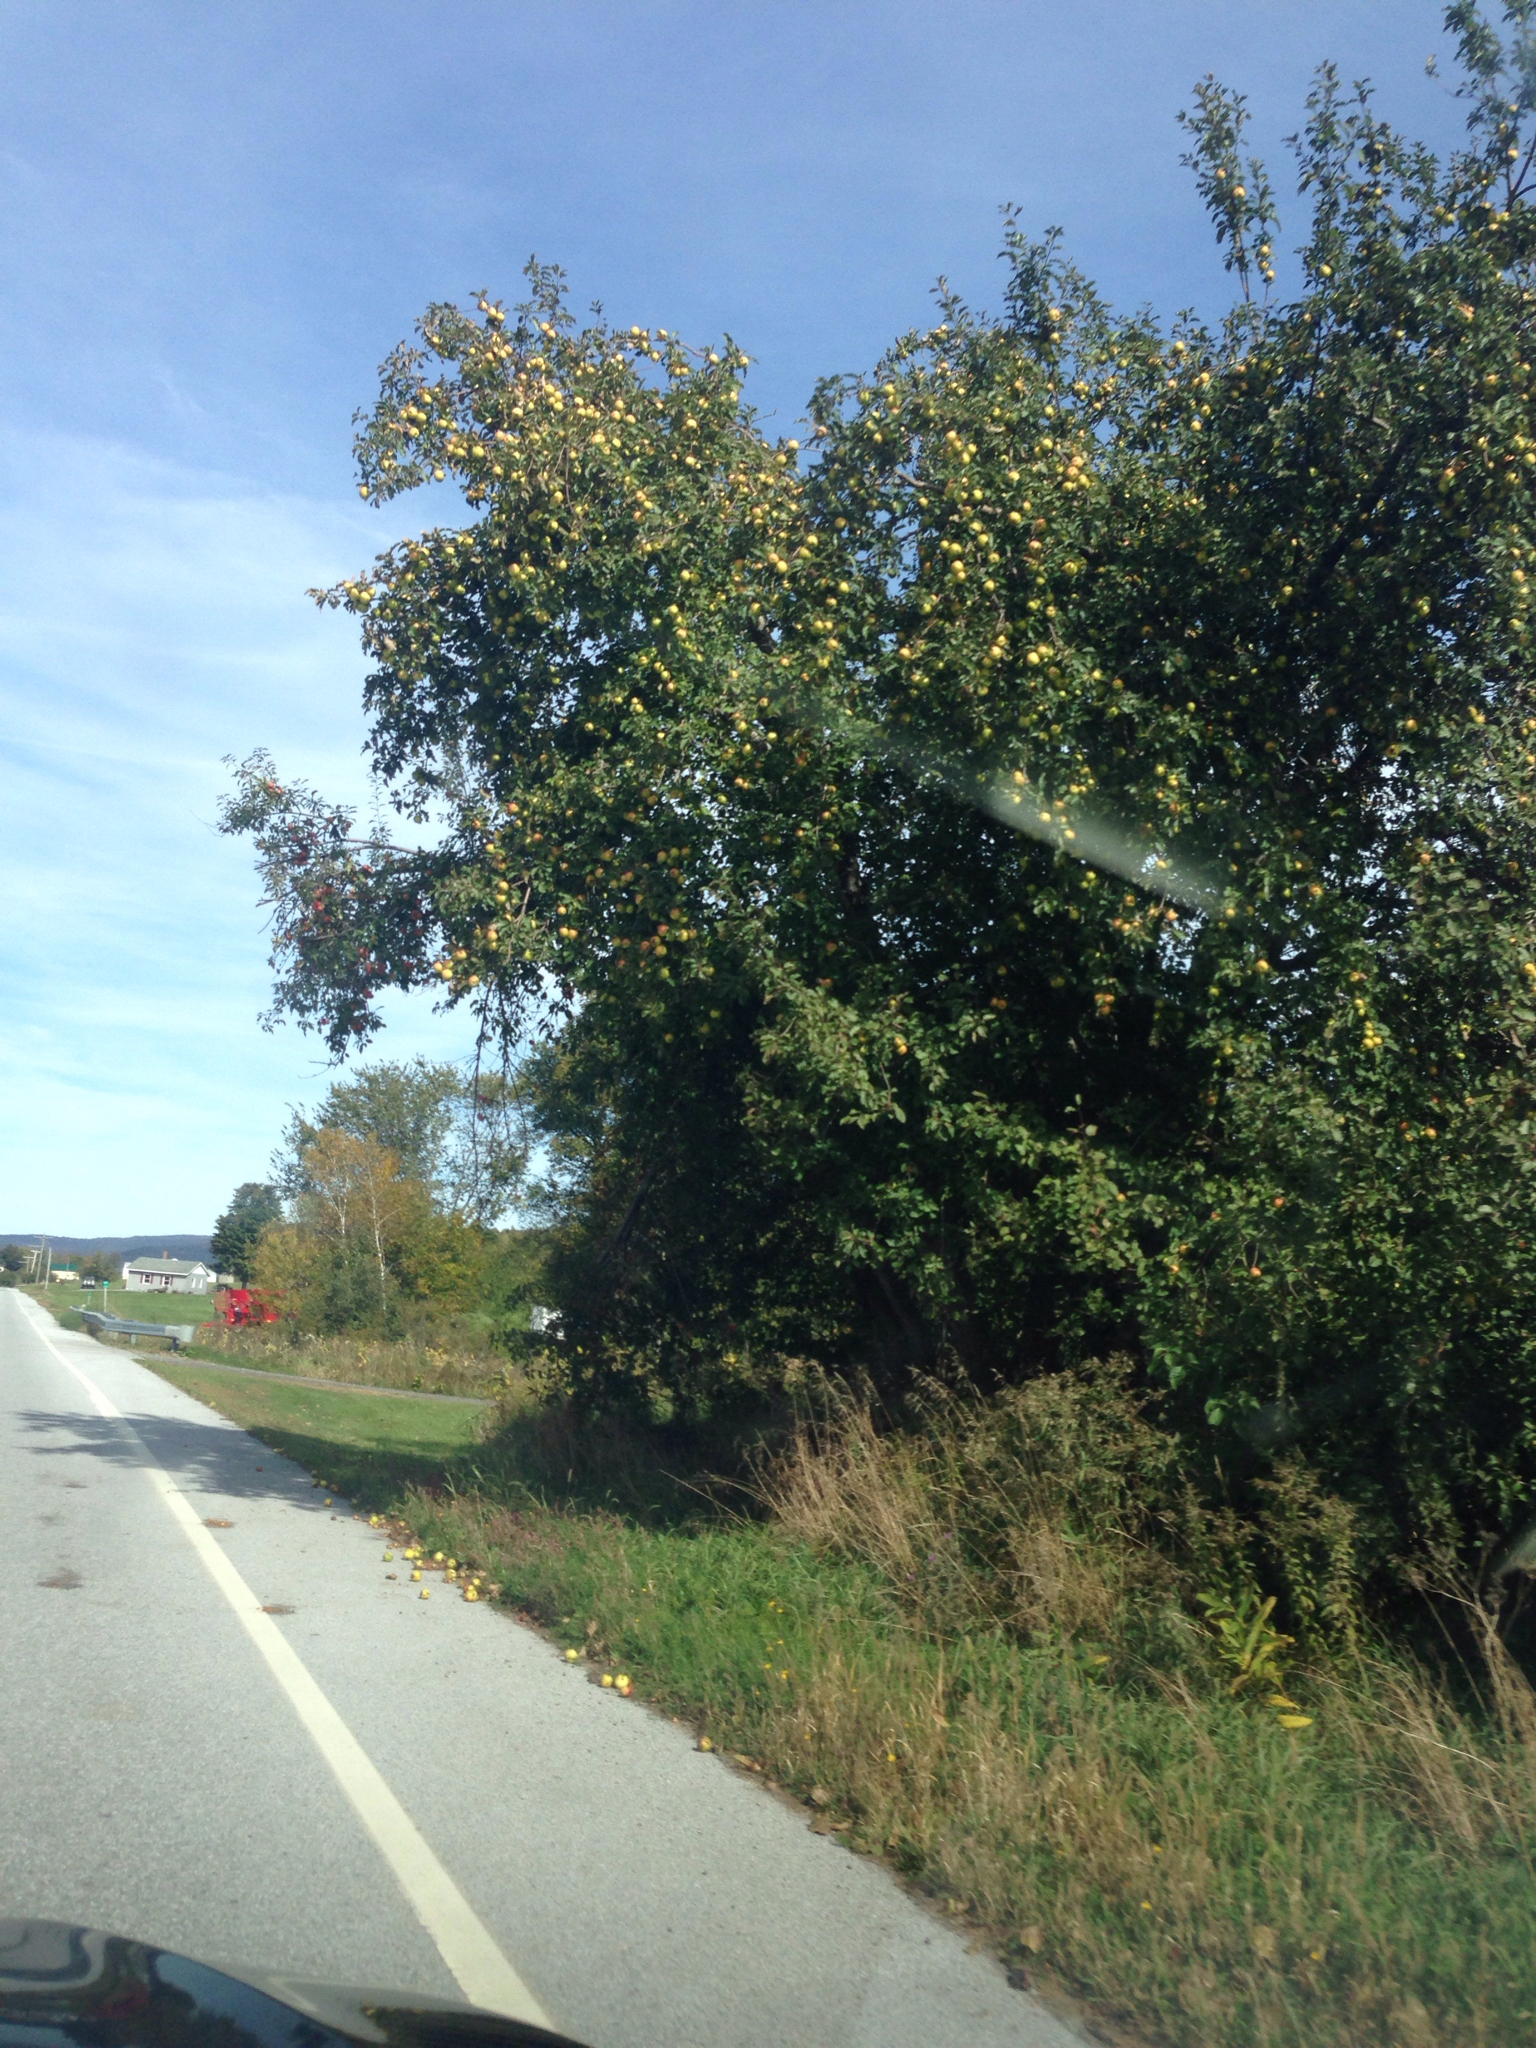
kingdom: Plantae
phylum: Tracheophyta
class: Magnoliopsida
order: Rosales
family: Rosaceae
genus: Malus
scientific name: Malus domestica
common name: Apple
